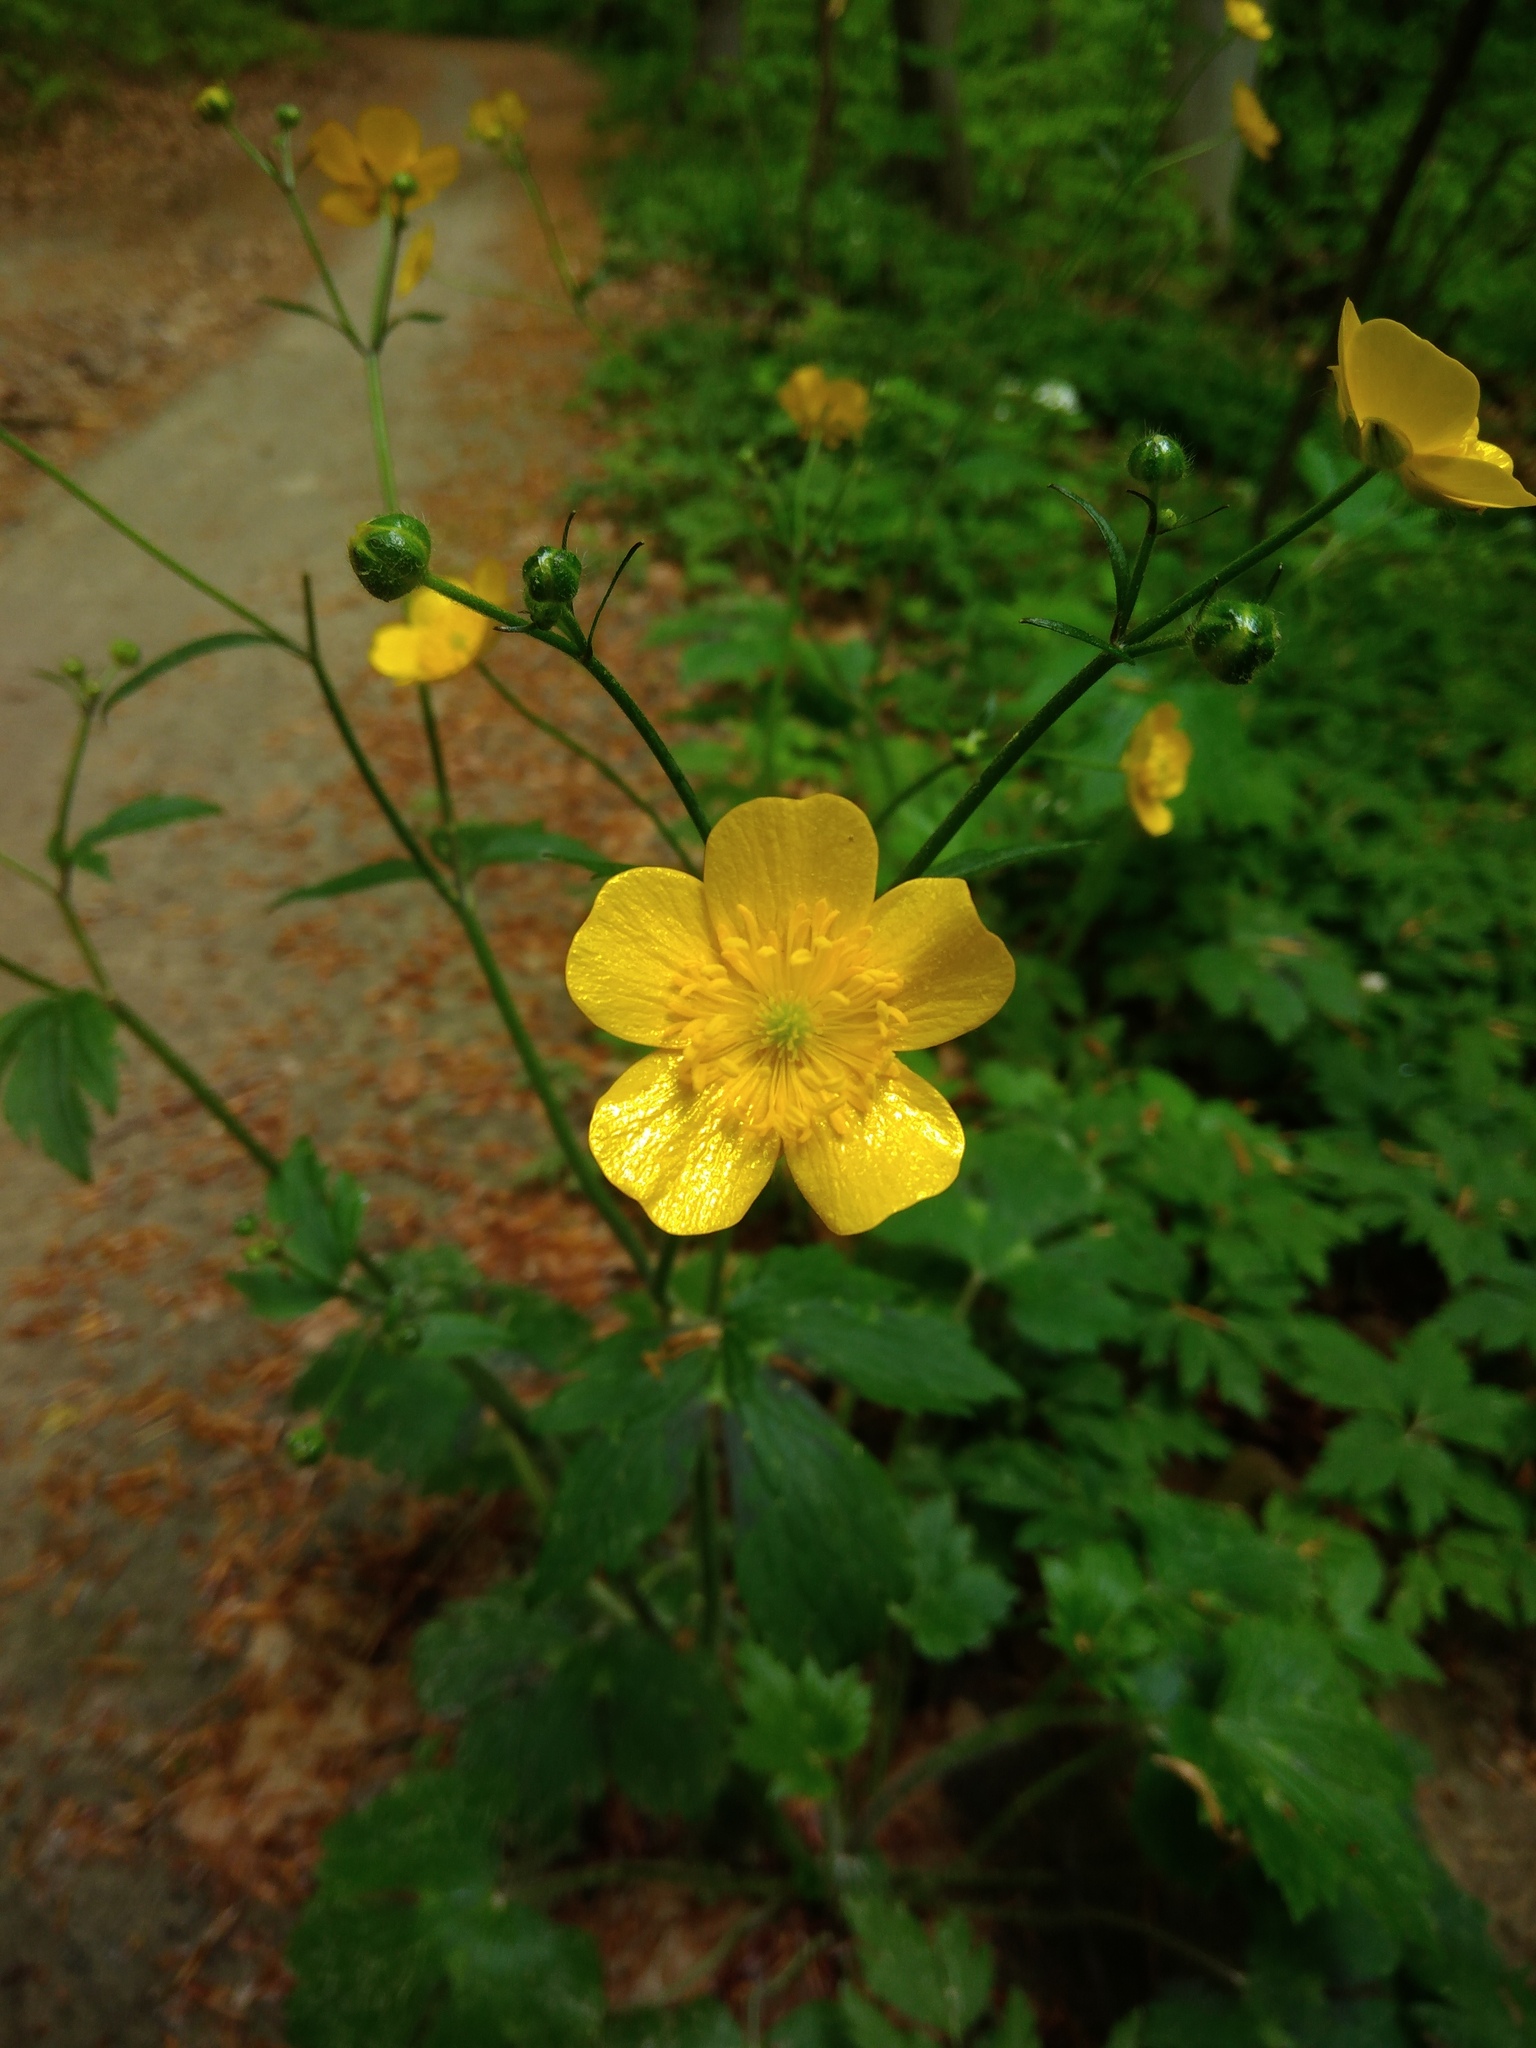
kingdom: Plantae
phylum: Tracheophyta
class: Magnoliopsida
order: Ranunculales
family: Ranunculaceae
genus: Ranunculus
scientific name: Ranunculus lanuginosus
